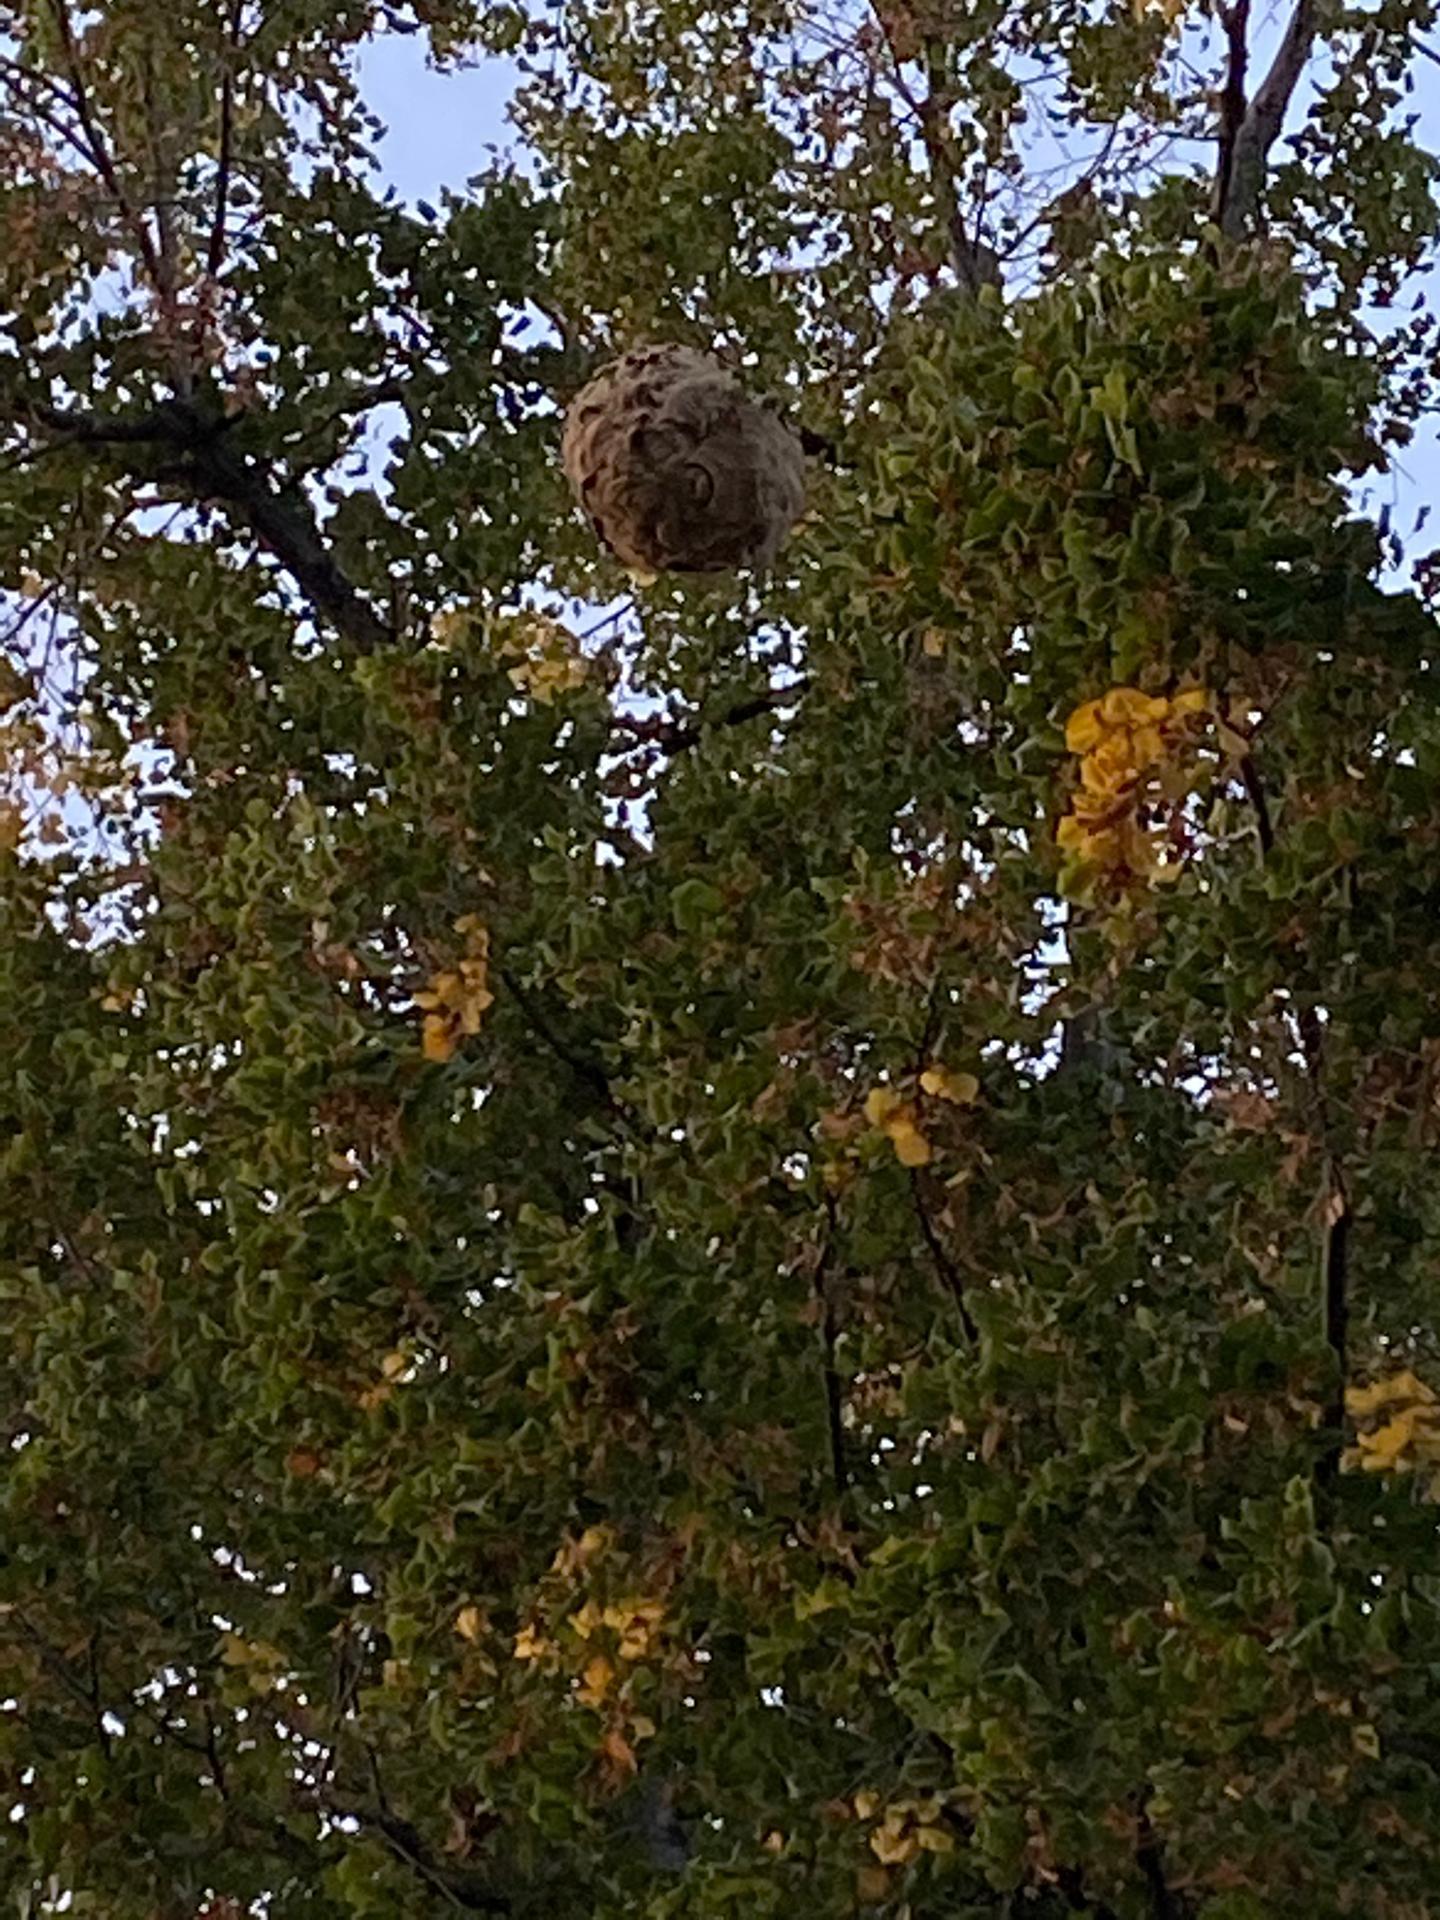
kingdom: Animalia
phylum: Arthropoda
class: Insecta
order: Hymenoptera
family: Vespidae
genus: Vespa
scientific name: Vespa velutina
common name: Asian hornet
